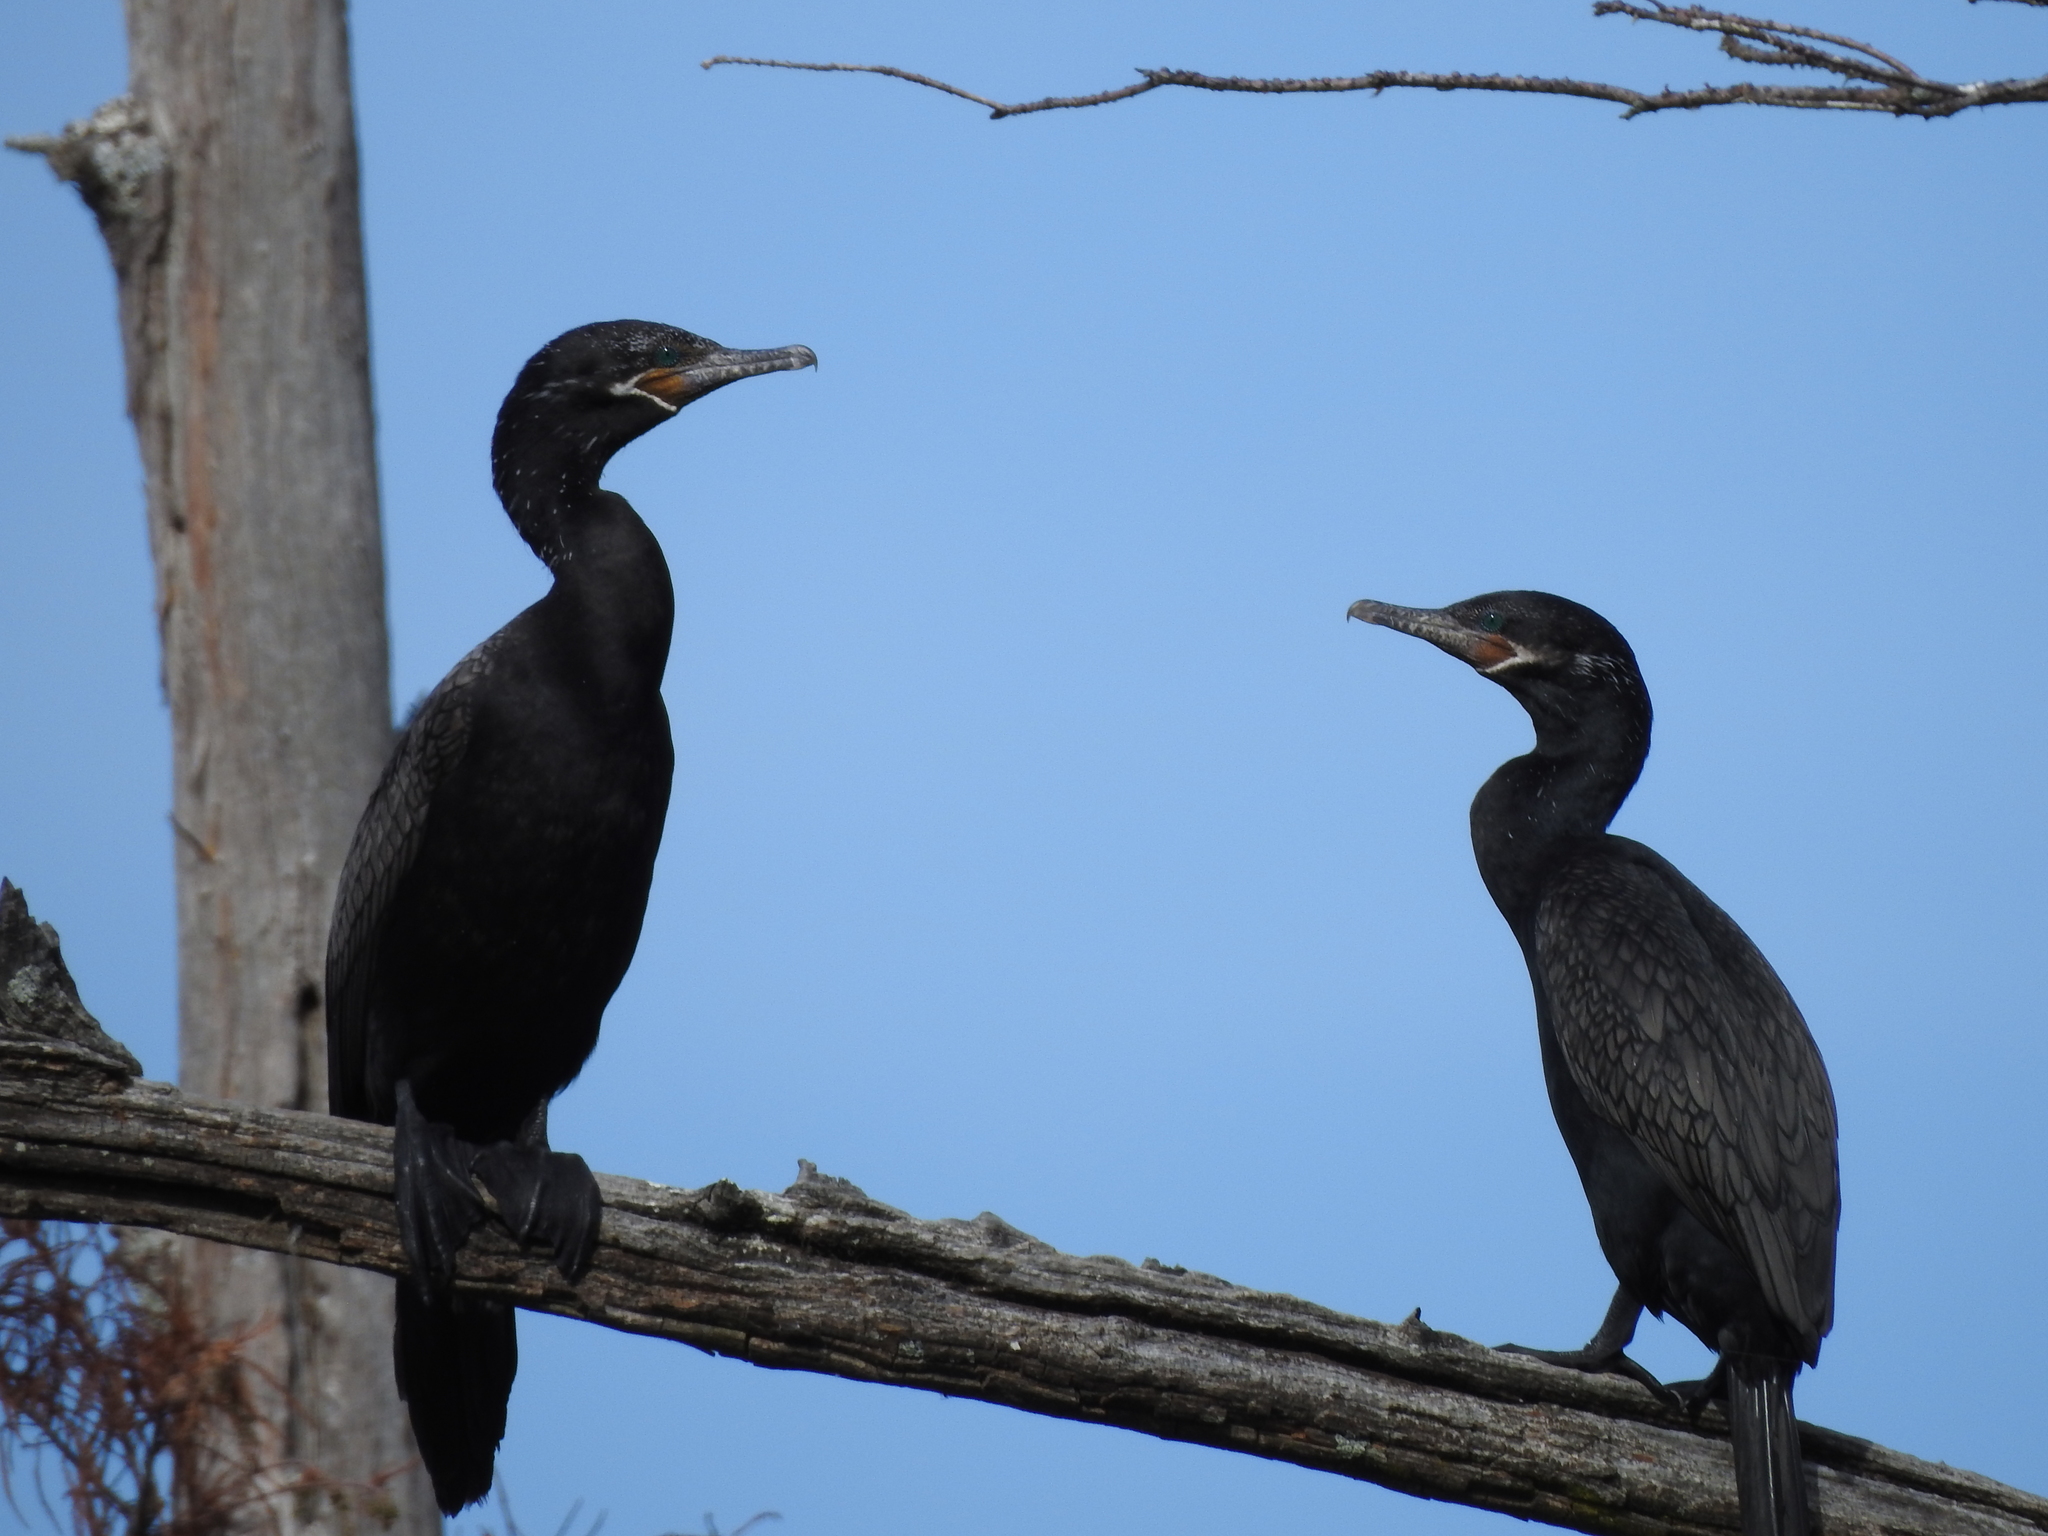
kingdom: Animalia
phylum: Chordata
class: Aves
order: Suliformes
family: Phalacrocoracidae
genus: Phalacrocorax
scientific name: Phalacrocorax brasilianus
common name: Neotropic cormorant
